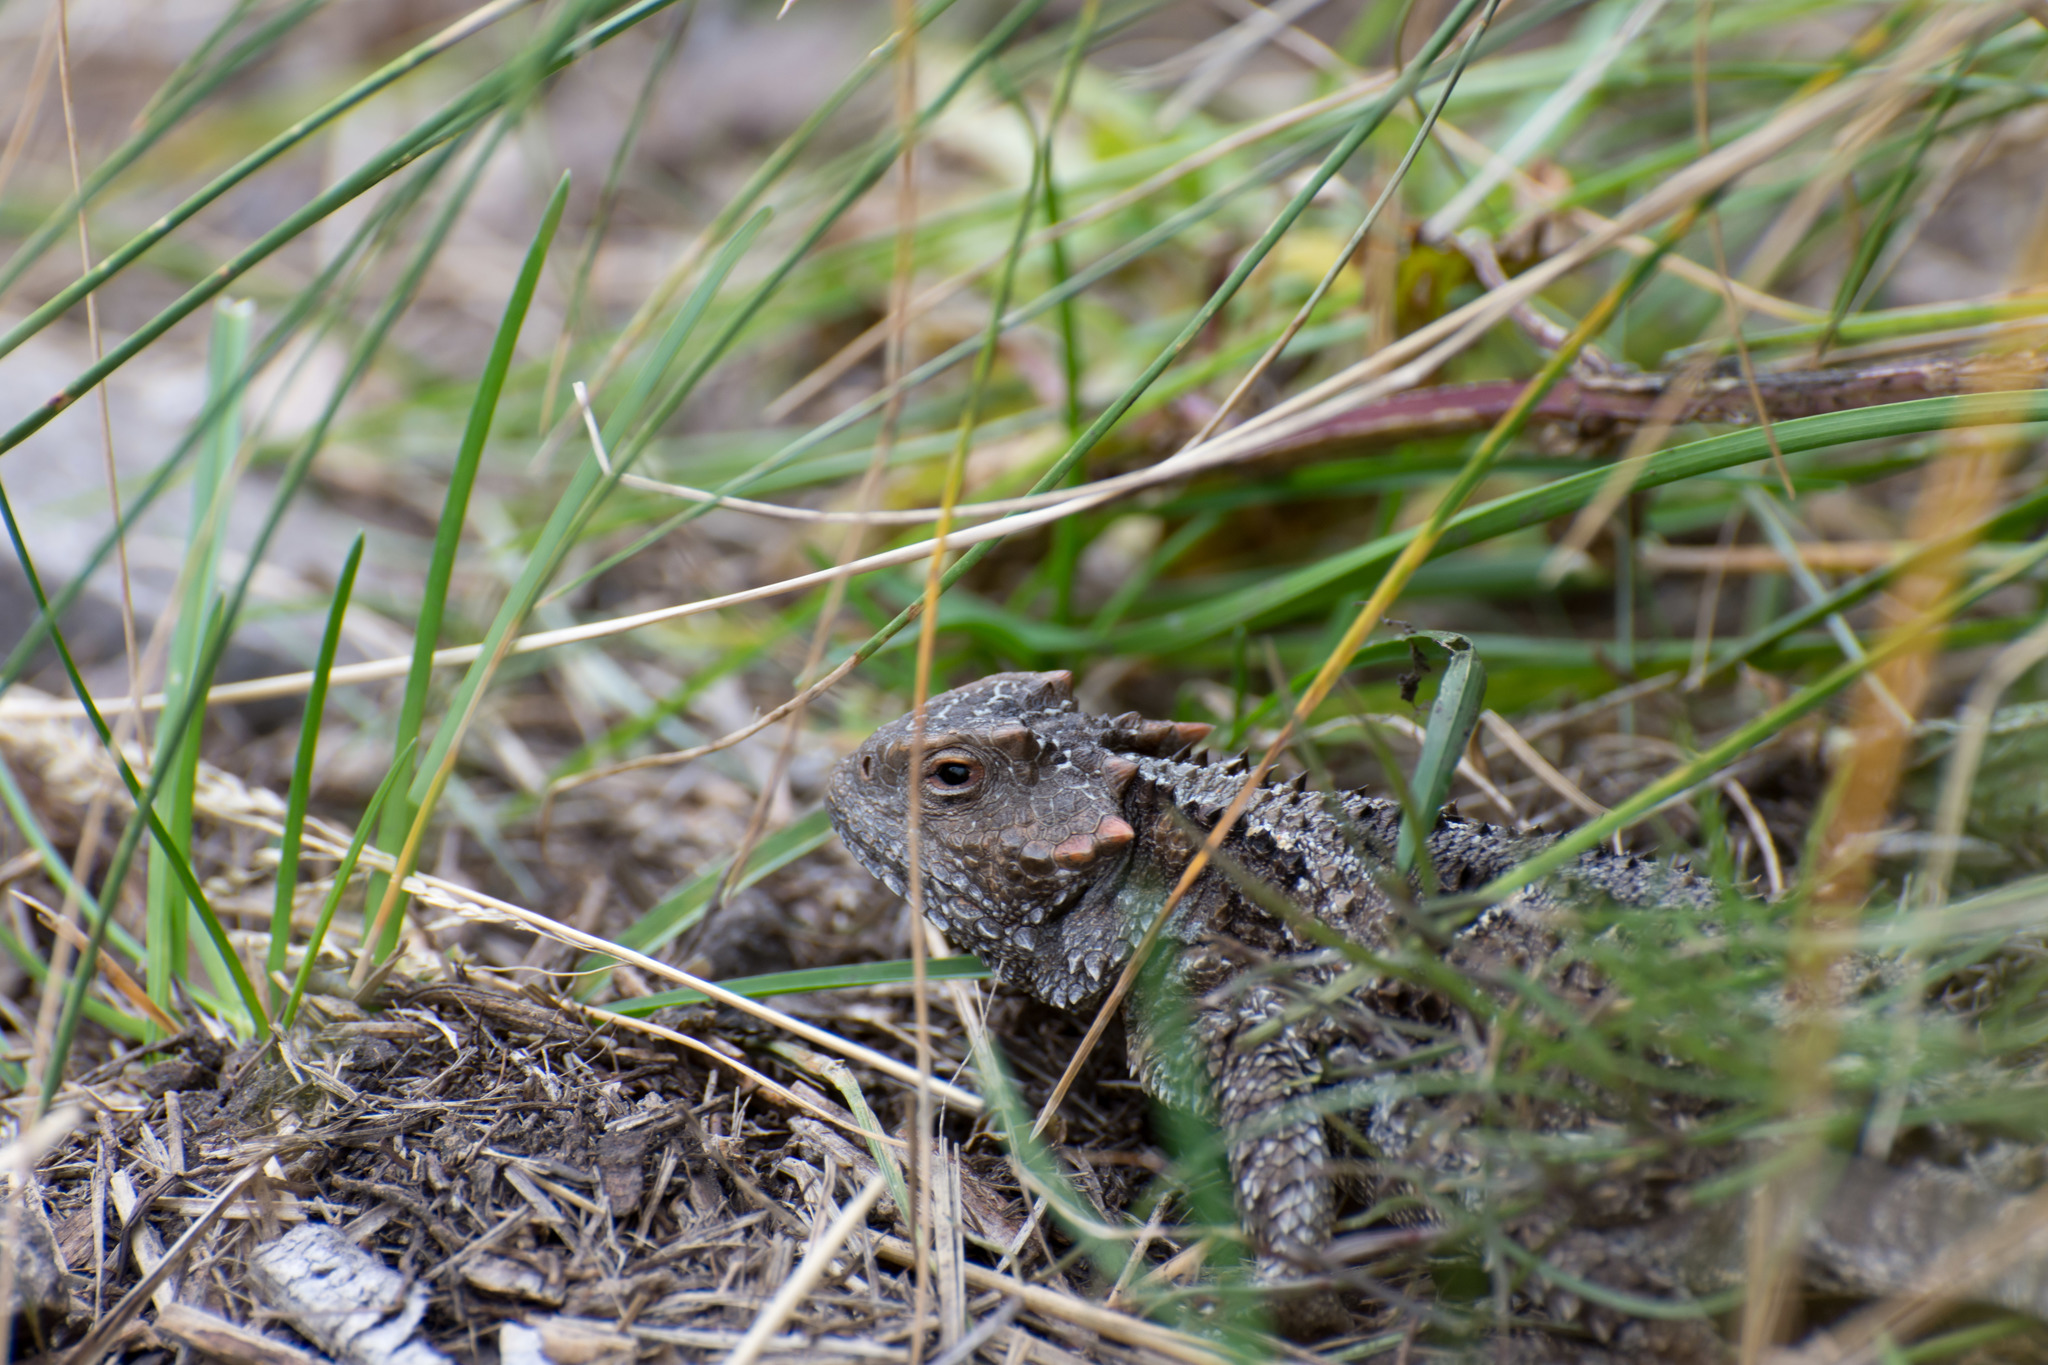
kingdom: Animalia
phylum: Chordata
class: Squamata
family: Phrynosomatidae
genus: Phrynosoma
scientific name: Phrynosoma hernandesi
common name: Greater short-horned lizard
